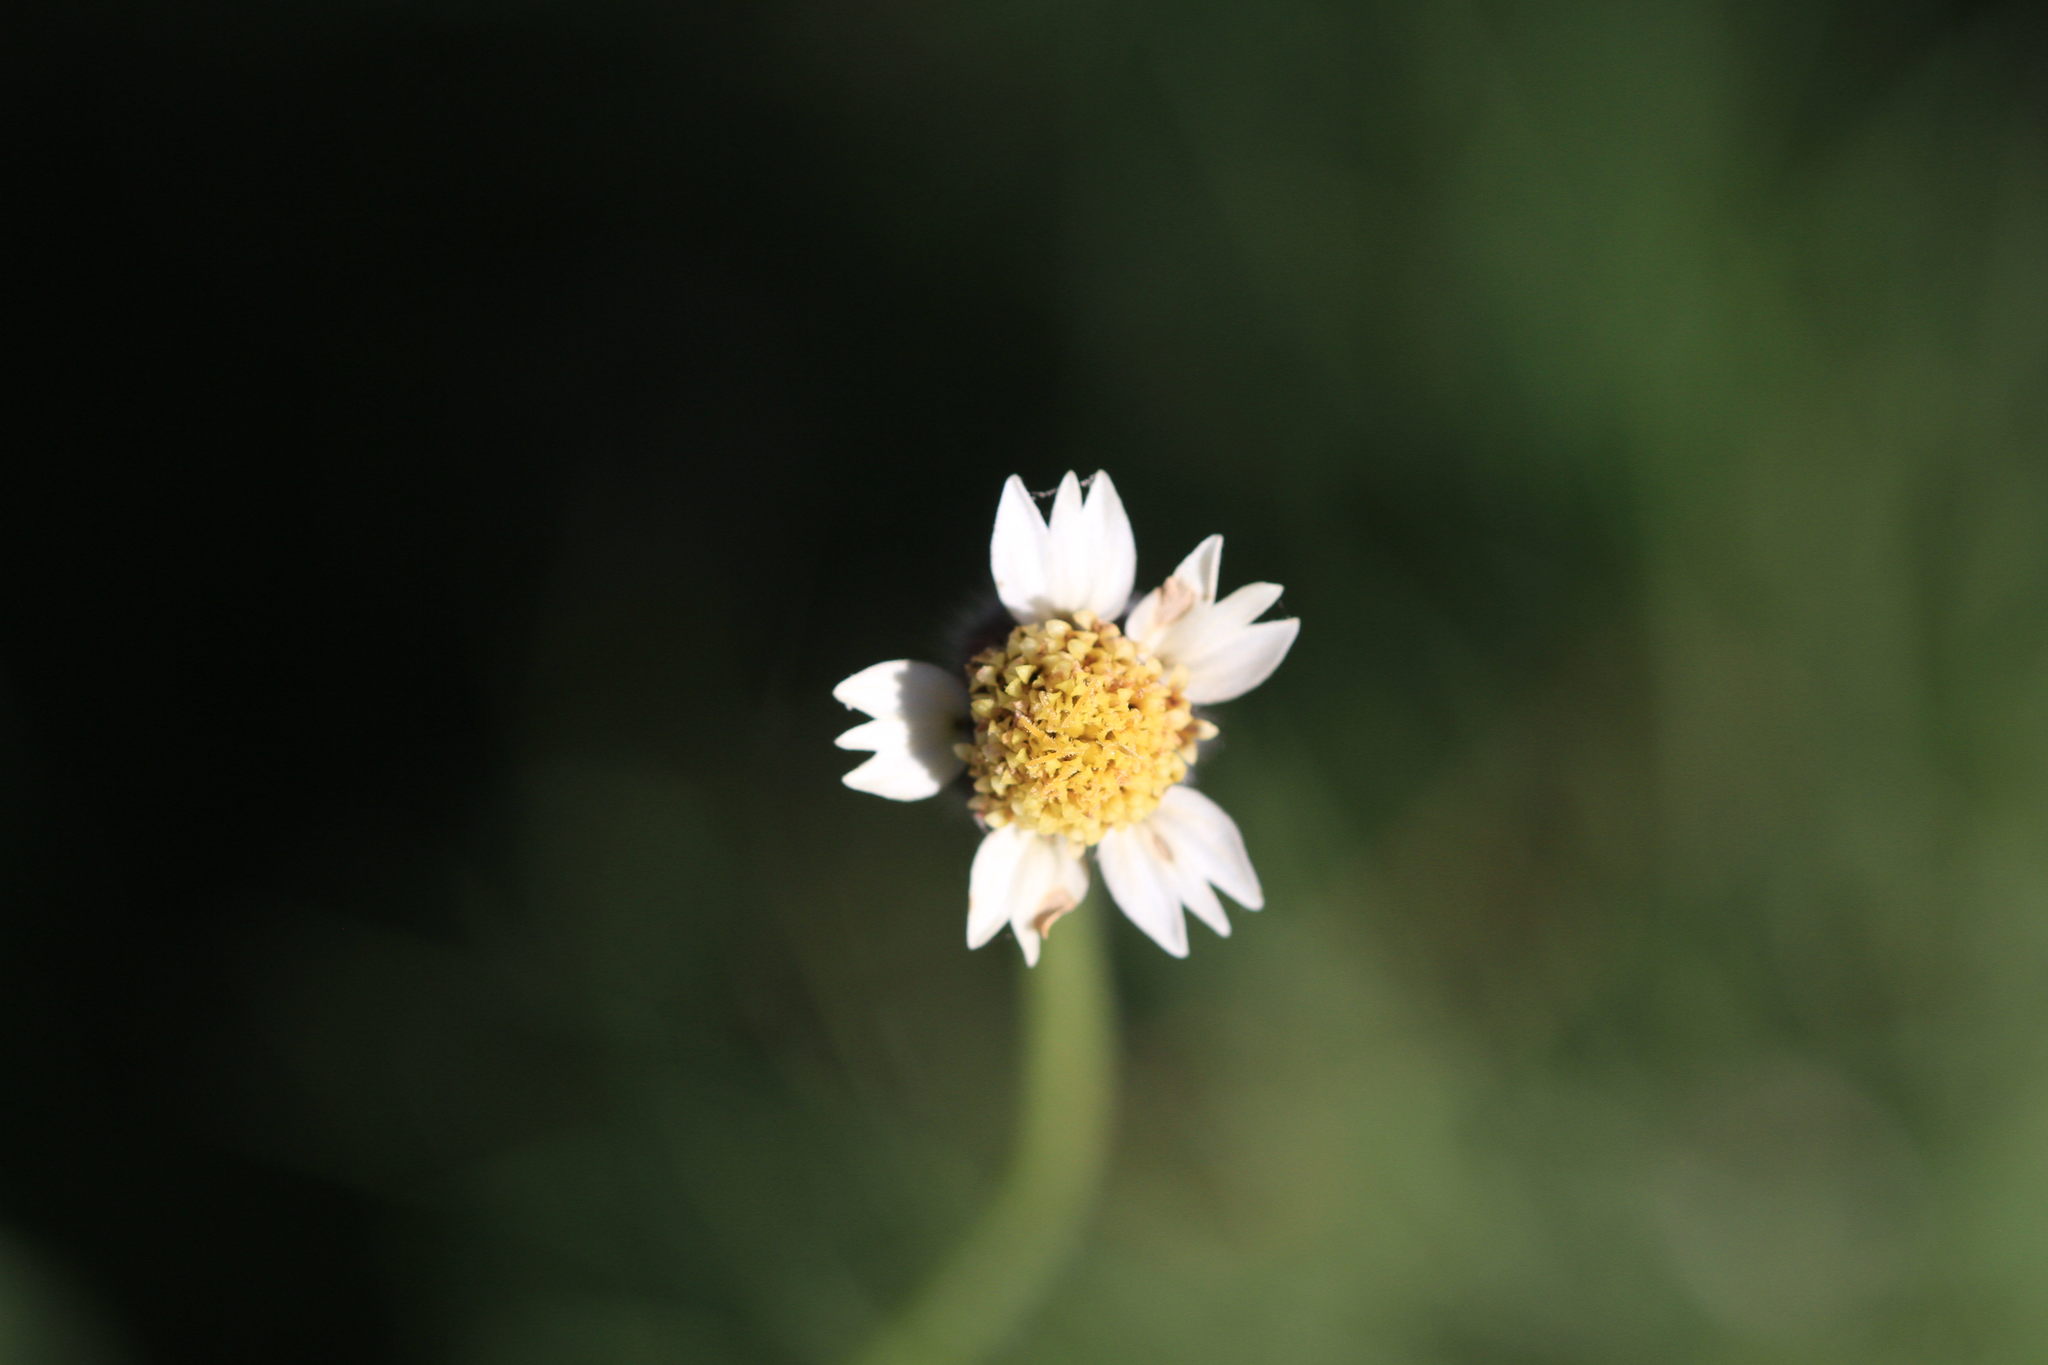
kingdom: Plantae
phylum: Tracheophyta
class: Magnoliopsida
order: Asterales
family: Asteraceae
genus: Tridax
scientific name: Tridax procumbens
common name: Coatbuttons
